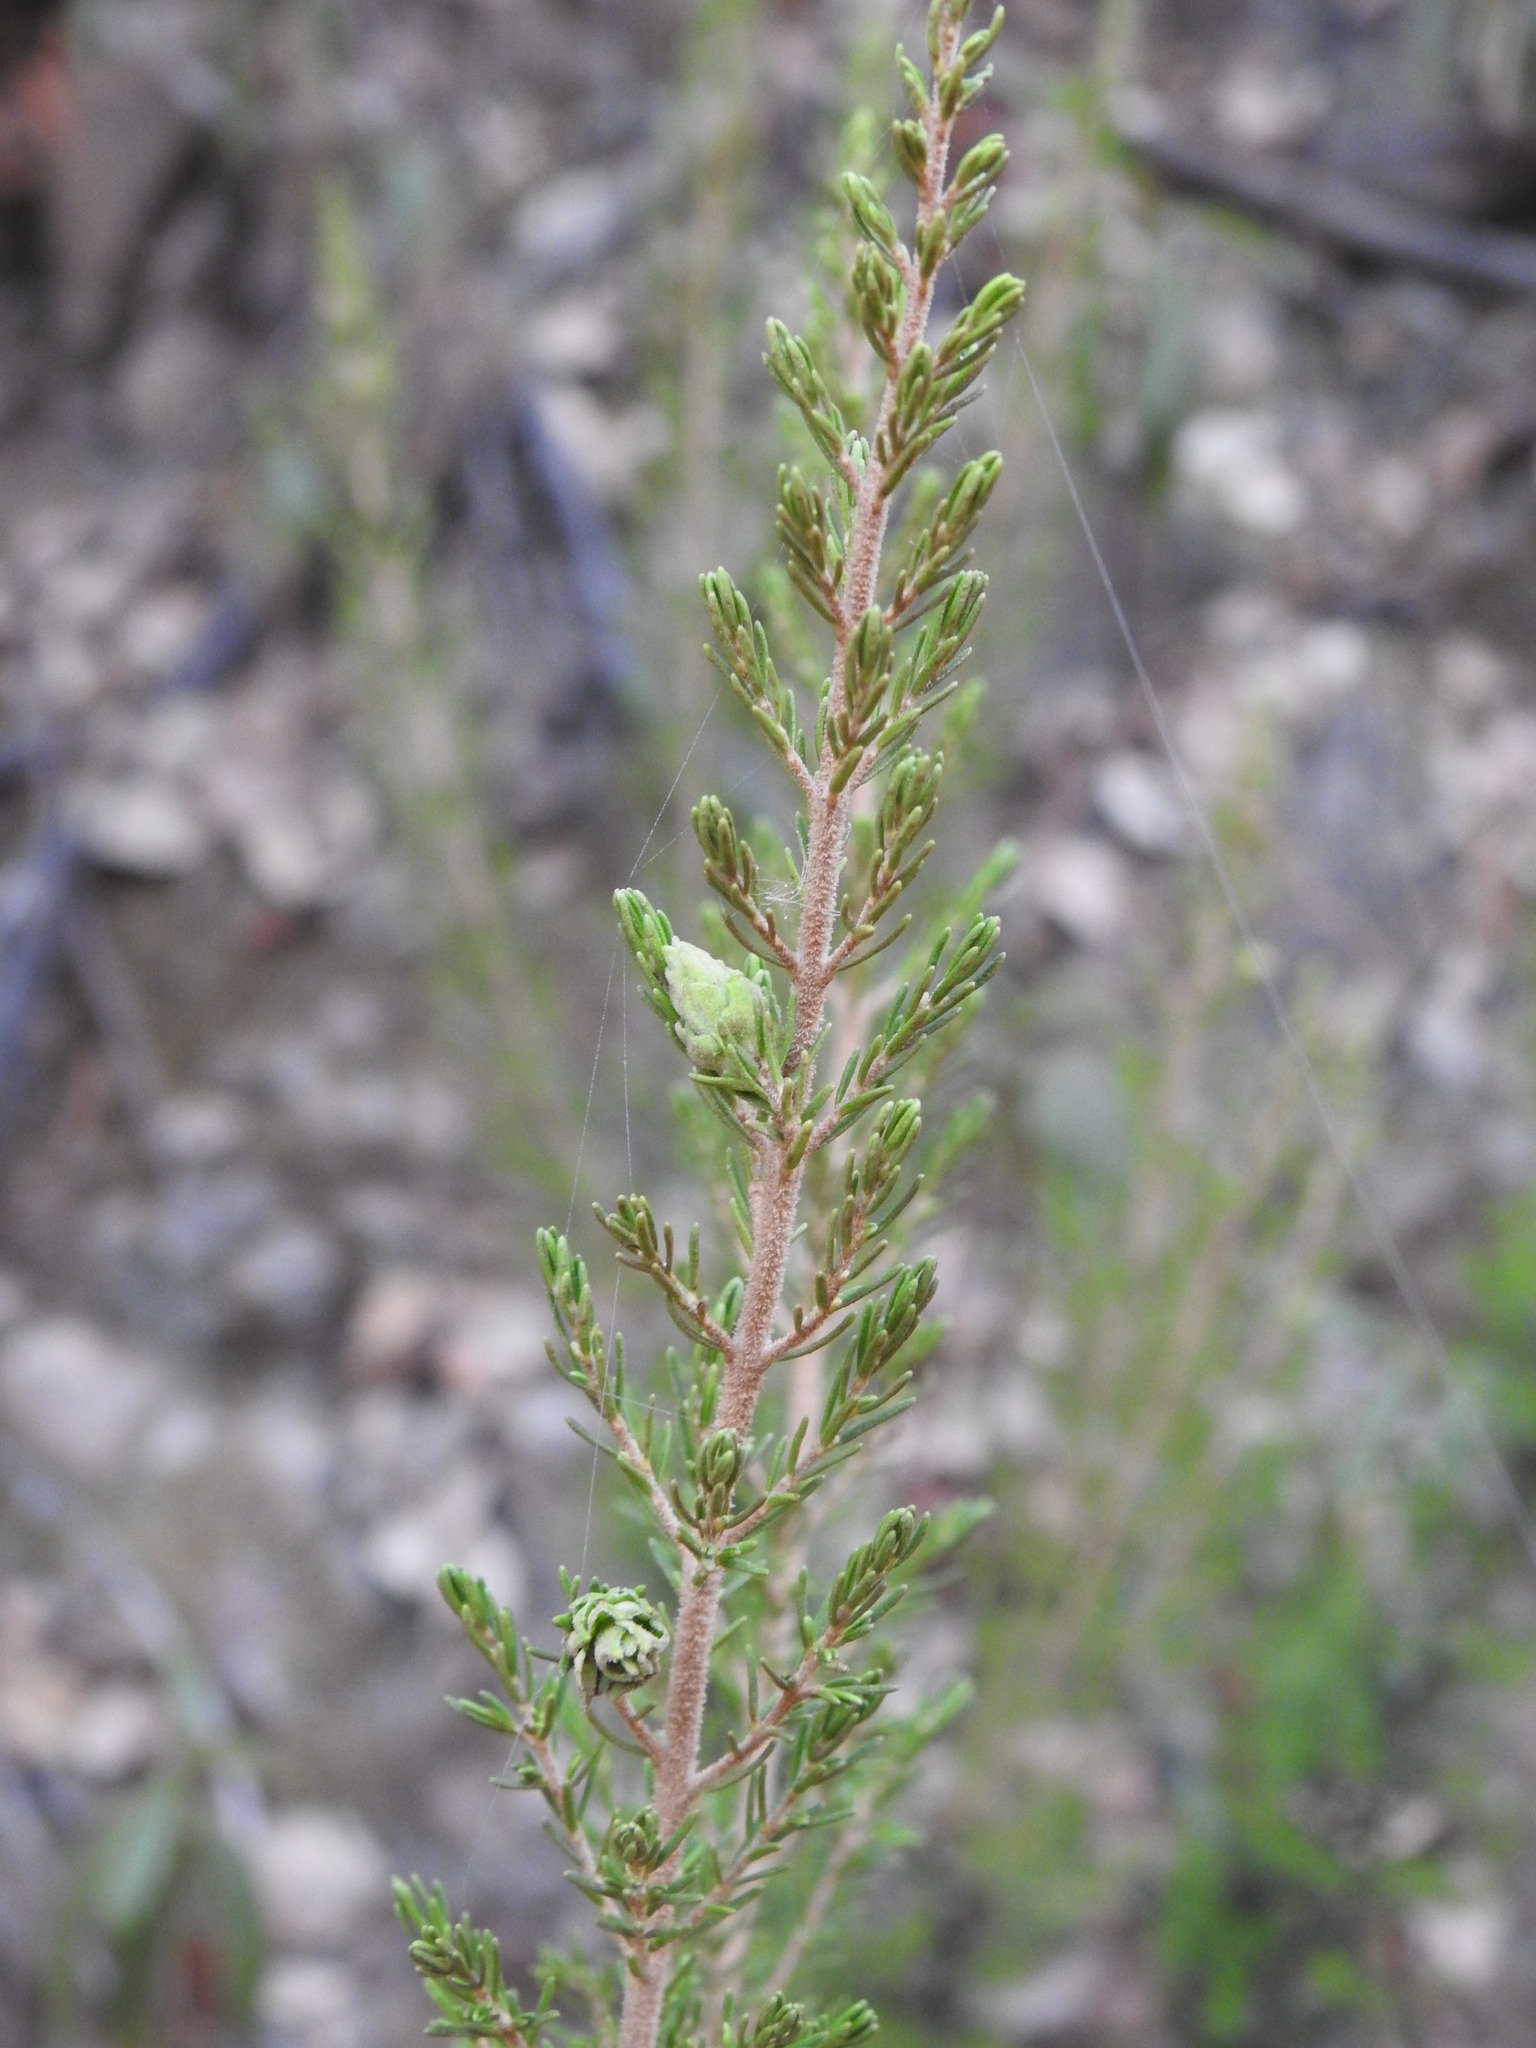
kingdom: Animalia
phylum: Arthropoda
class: Insecta
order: Diptera
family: Cecidomyiidae
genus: Wachtliella
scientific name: Wachtliella ericina
